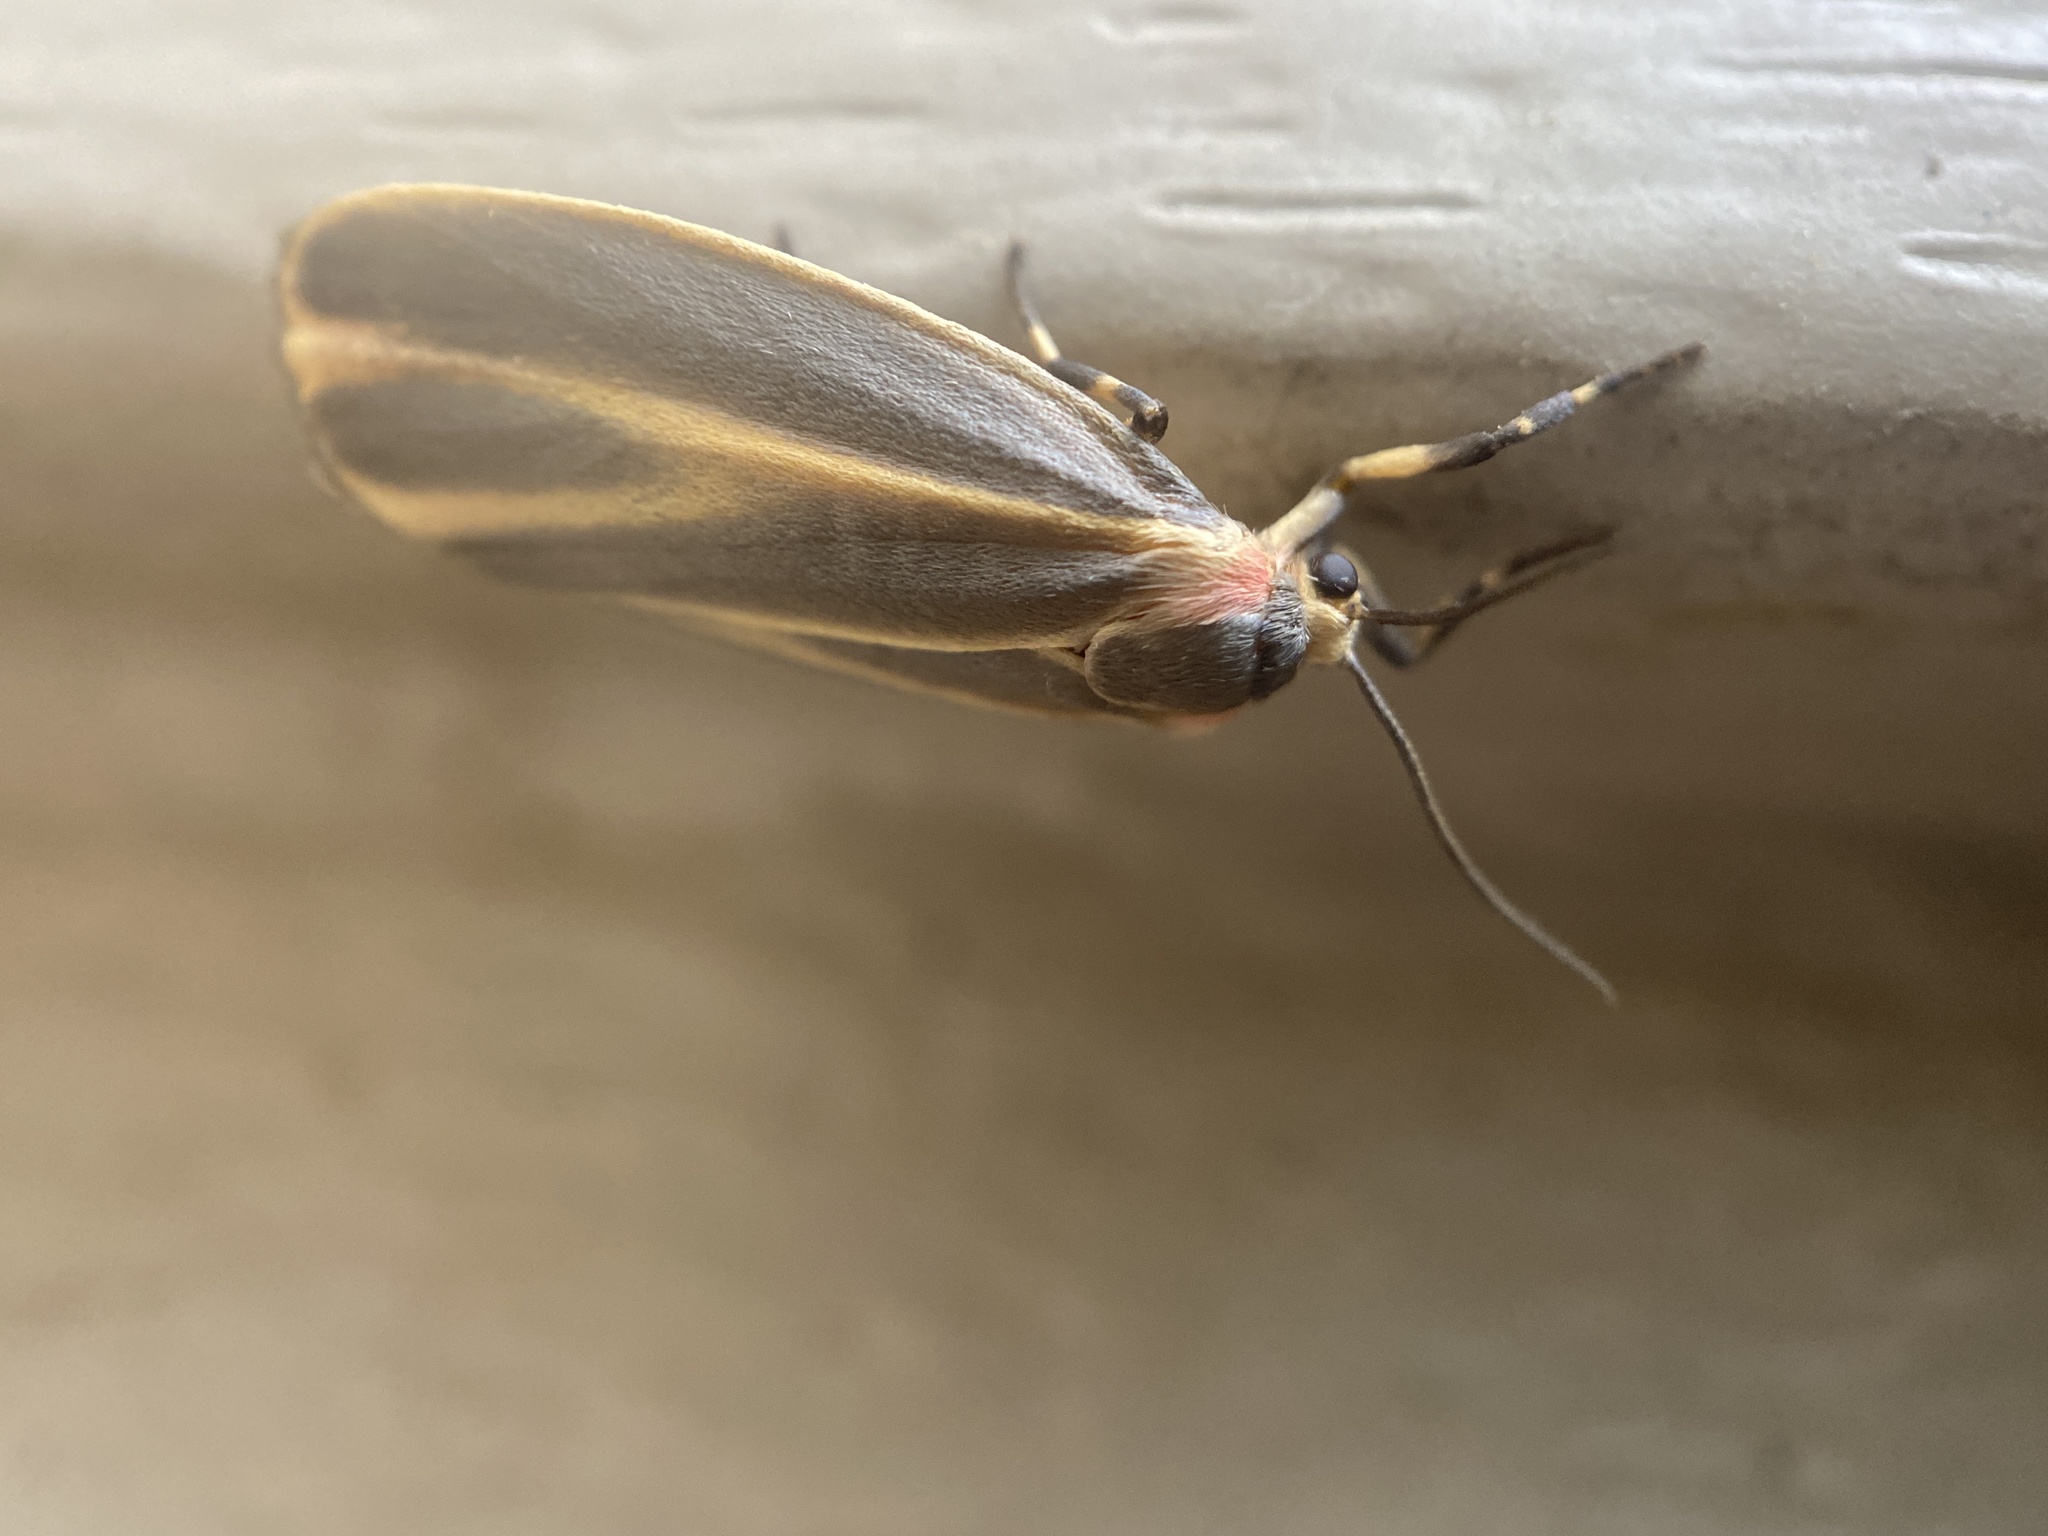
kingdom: Animalia
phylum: Arthropoda
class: Insecta
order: Lepidoptera
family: Erebidae
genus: Hypoprepia
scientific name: Hypoprepia fucosa
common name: Painted lichen moth
